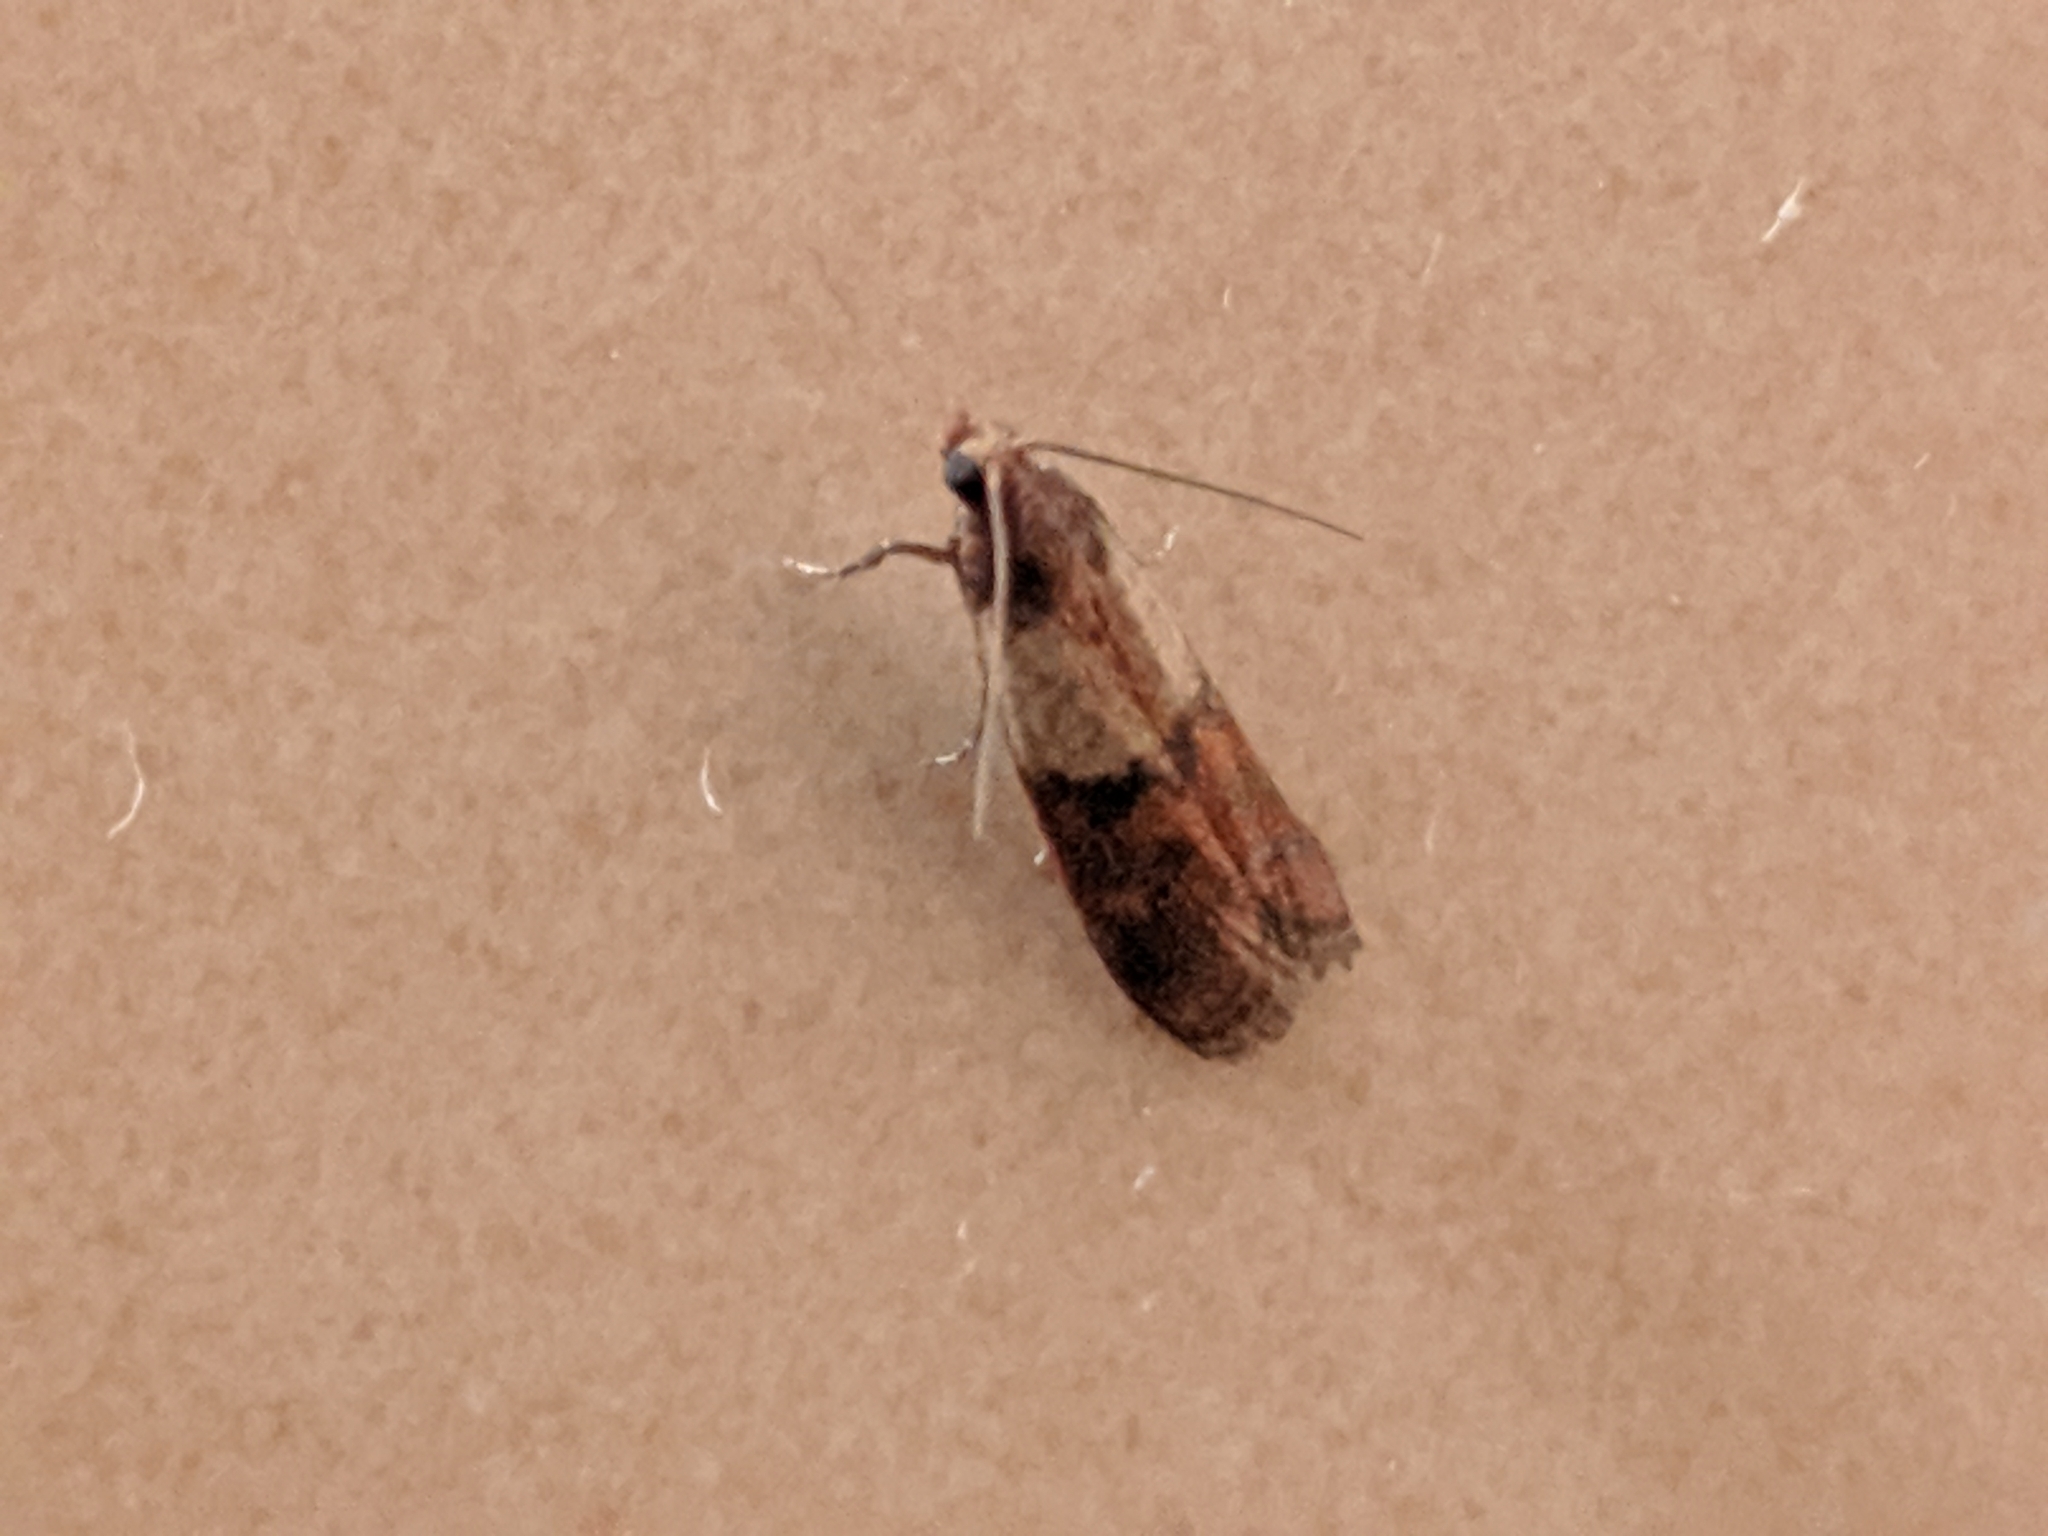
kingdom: Animalia
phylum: Arthropoda
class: Insecta
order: Lepidoptera
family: Pyralidae
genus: Plodia
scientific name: Plodia interpunctella
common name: Indian meal moth
